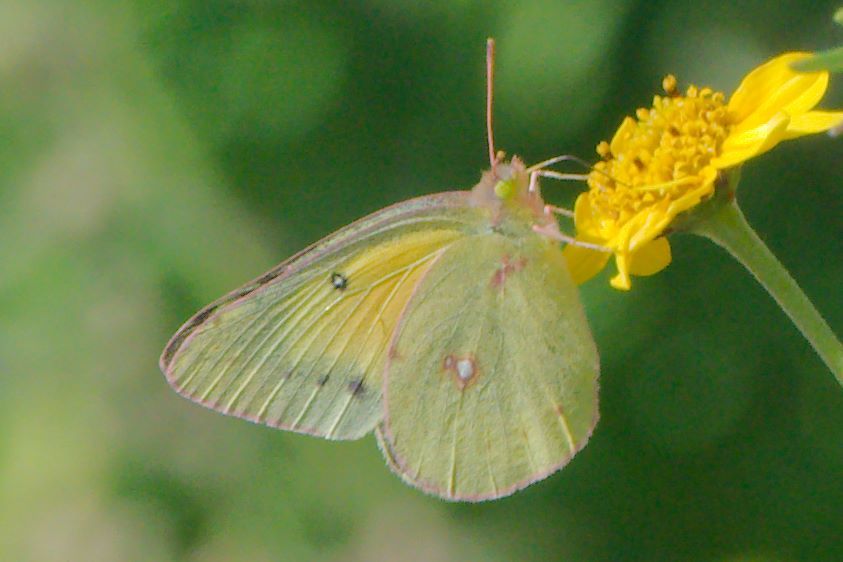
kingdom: Animalia
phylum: Arthropoda
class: Insecta
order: Lepidoptera
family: Pieridae
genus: Colias
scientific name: Colias eurytheme
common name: Alfalfa butterfly
